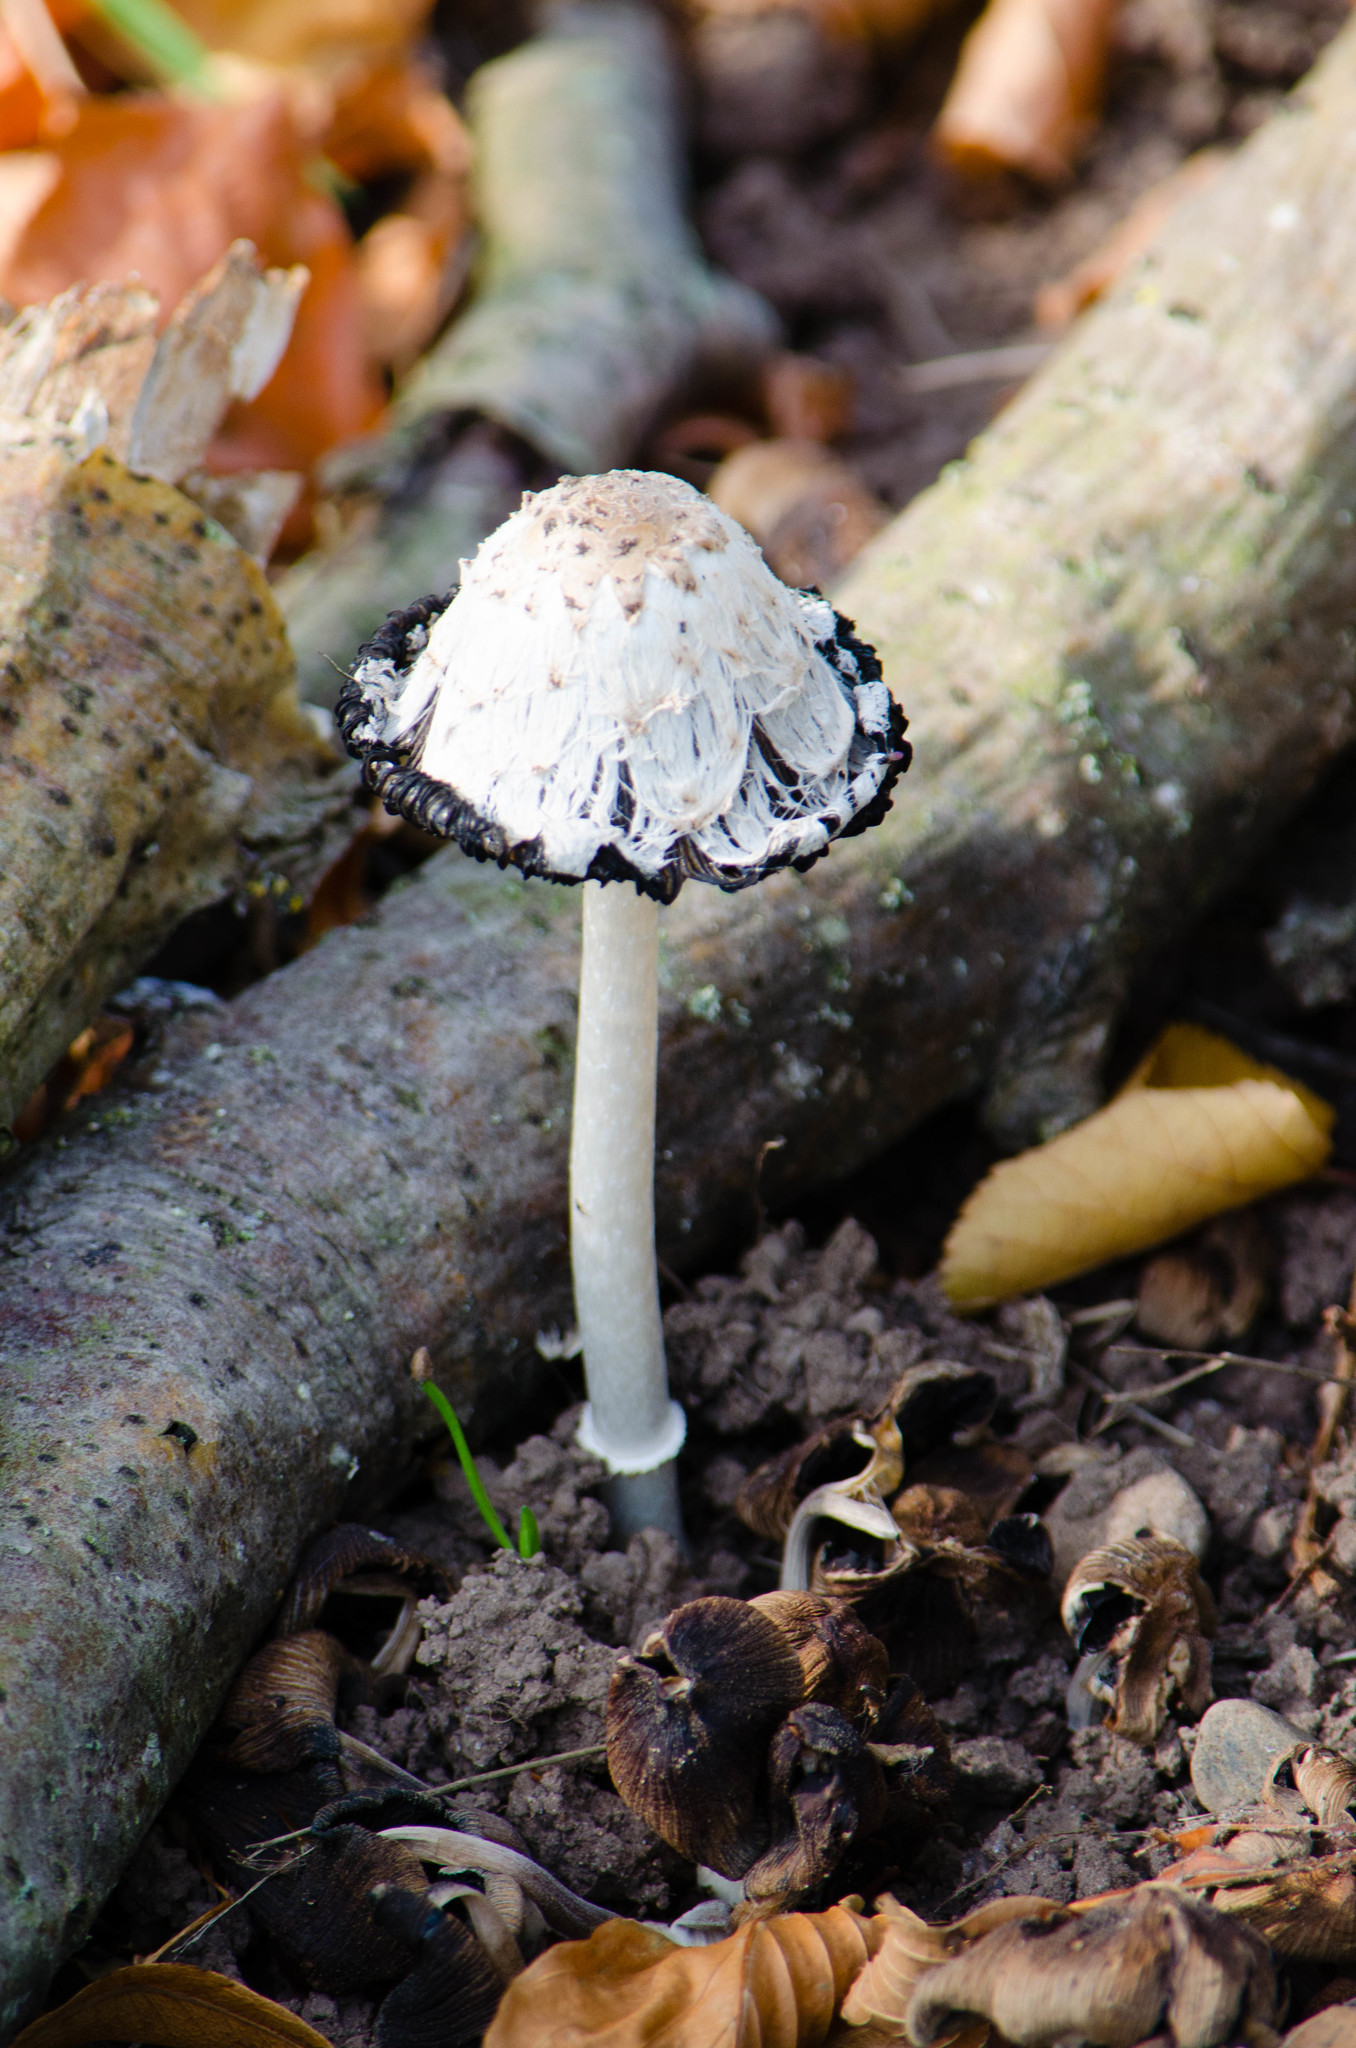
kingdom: Fungi
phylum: Basidiomycota
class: Agaricomycetes
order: Agaricales
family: Agaricaceae
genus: Coprinus
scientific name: Coprinus comatus
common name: Lawyer's wig
